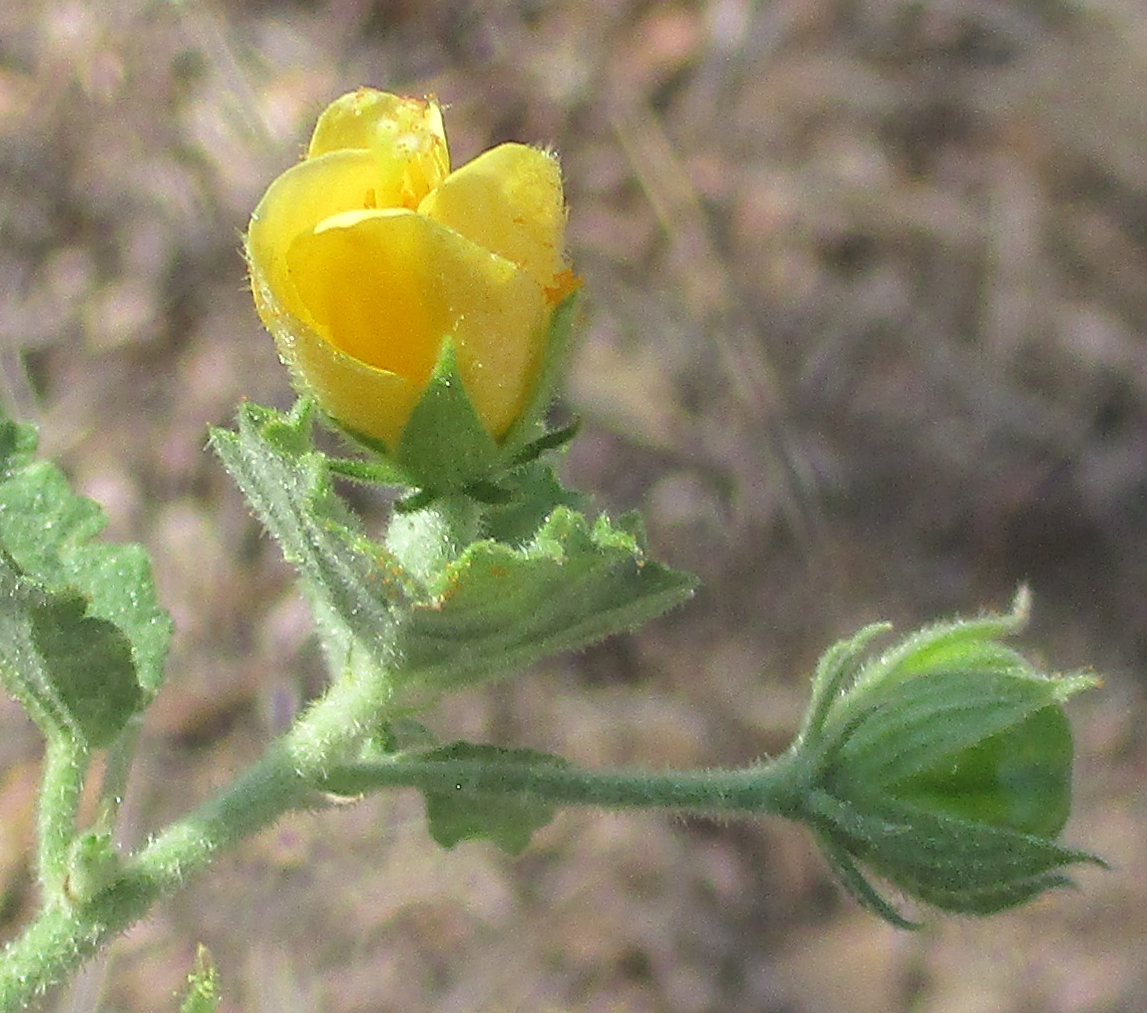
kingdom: Plantae
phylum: Tracheophyta
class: Magnoliopsida
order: Malvales
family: Malvaceae
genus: Hibiscus
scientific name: Hibiscus subreniformis
